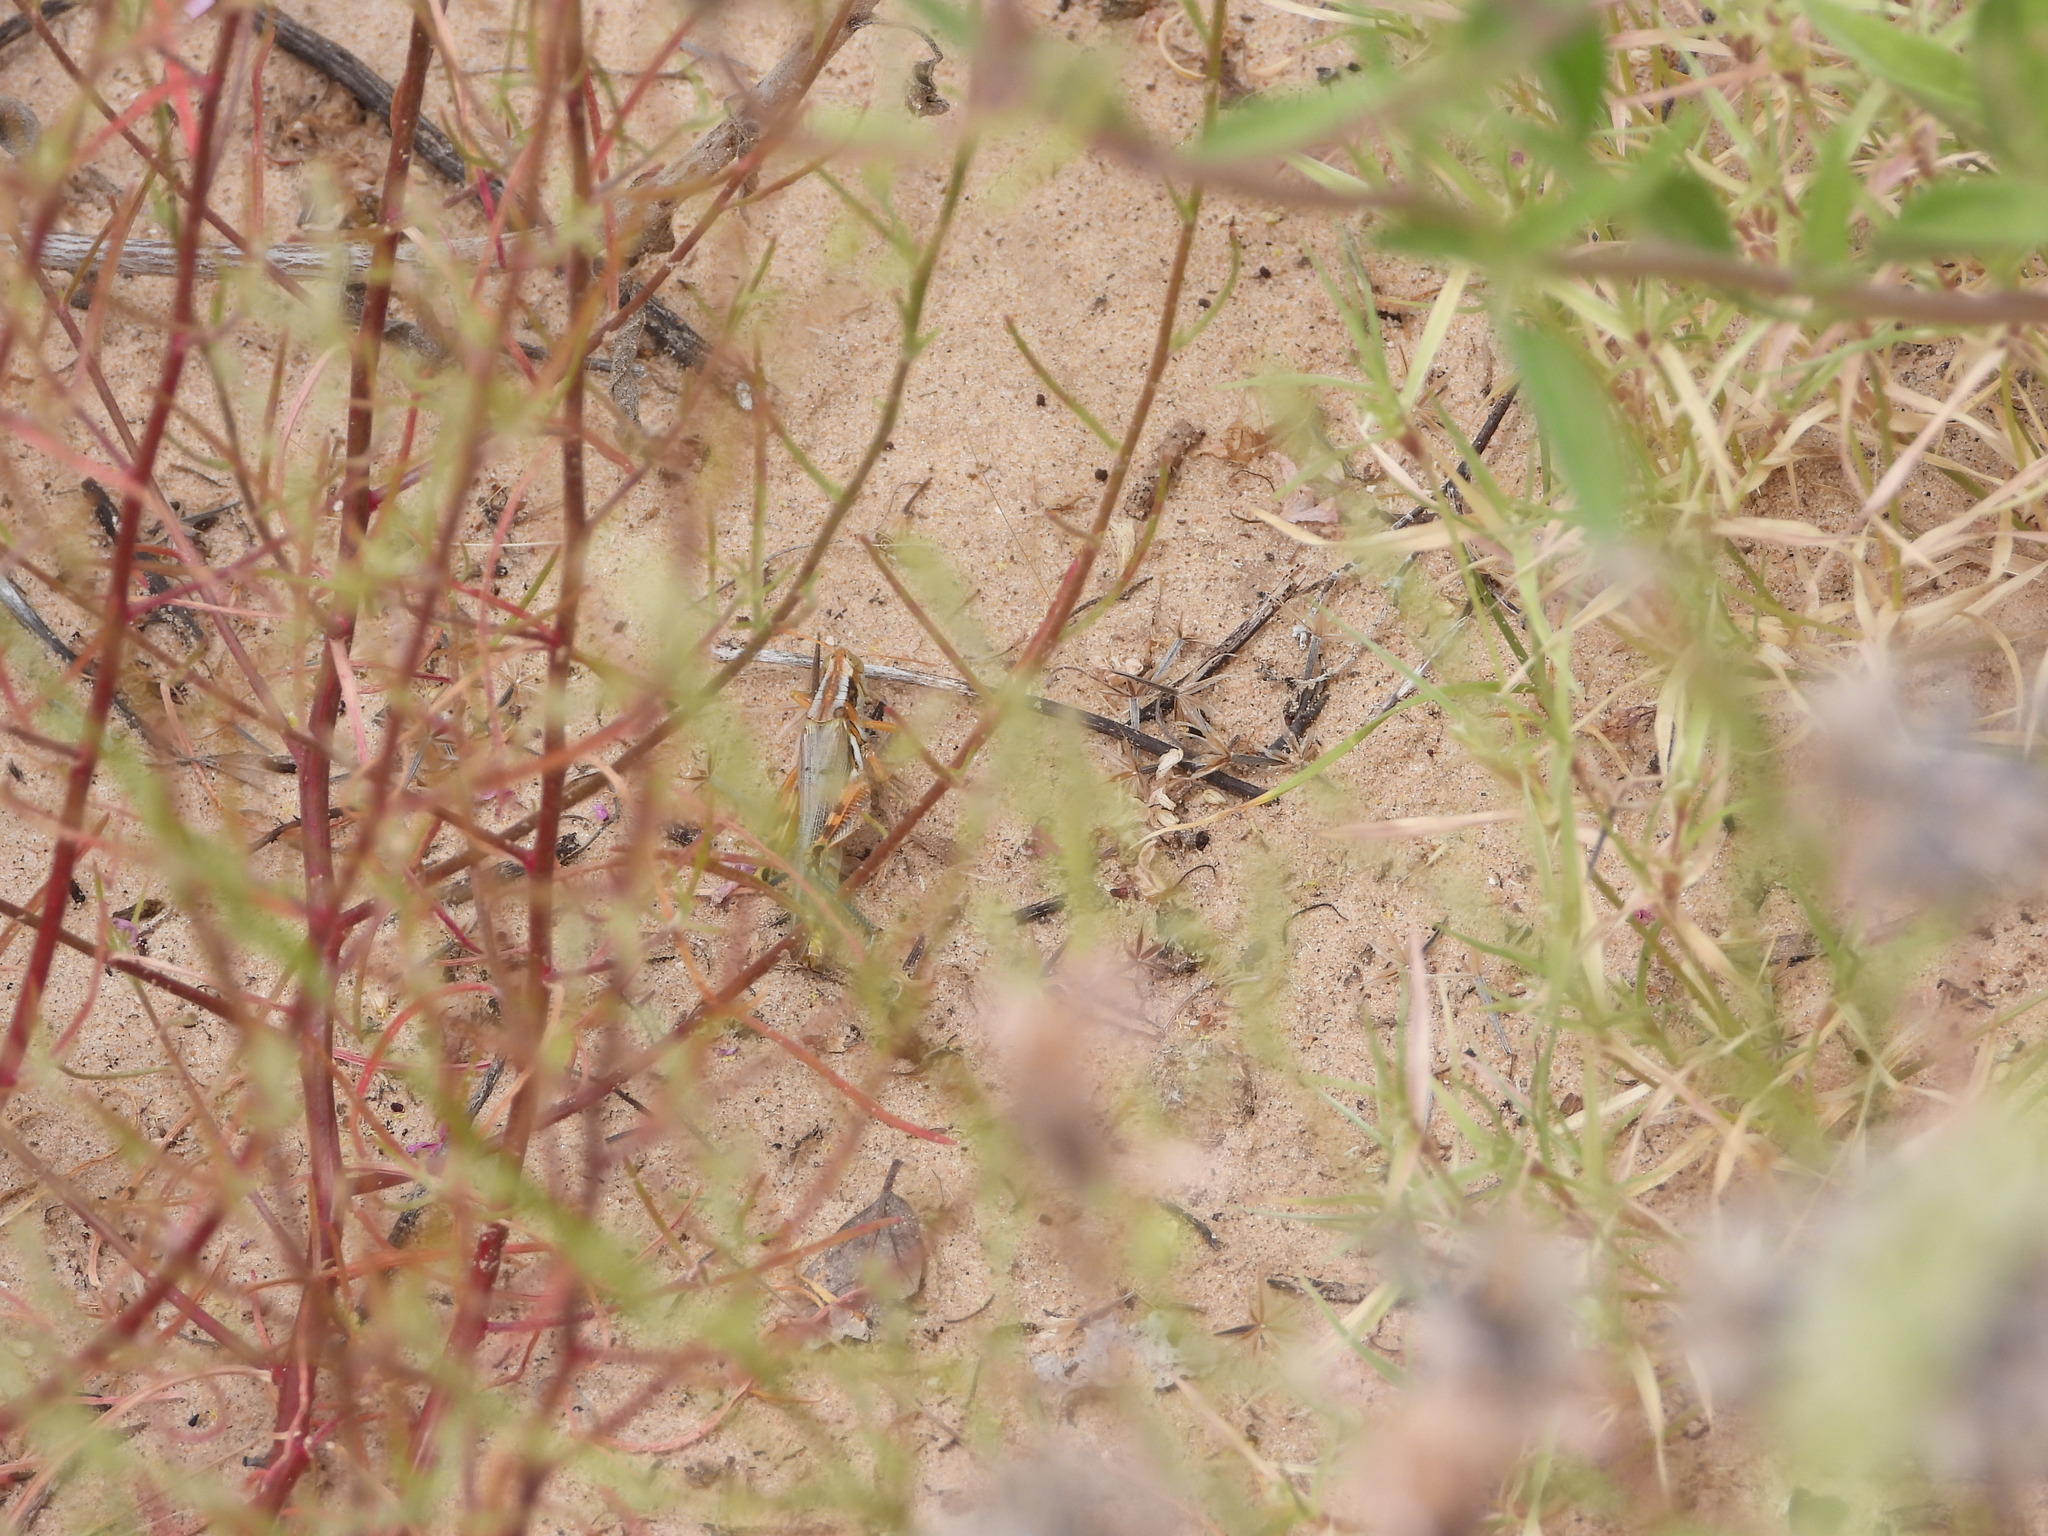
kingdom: Animalia
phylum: Arthropoda
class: Insecta
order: Orthoptera
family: Acrididae
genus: Melanoplus
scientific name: Melanoplus flavidus
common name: Blue-legged locust
